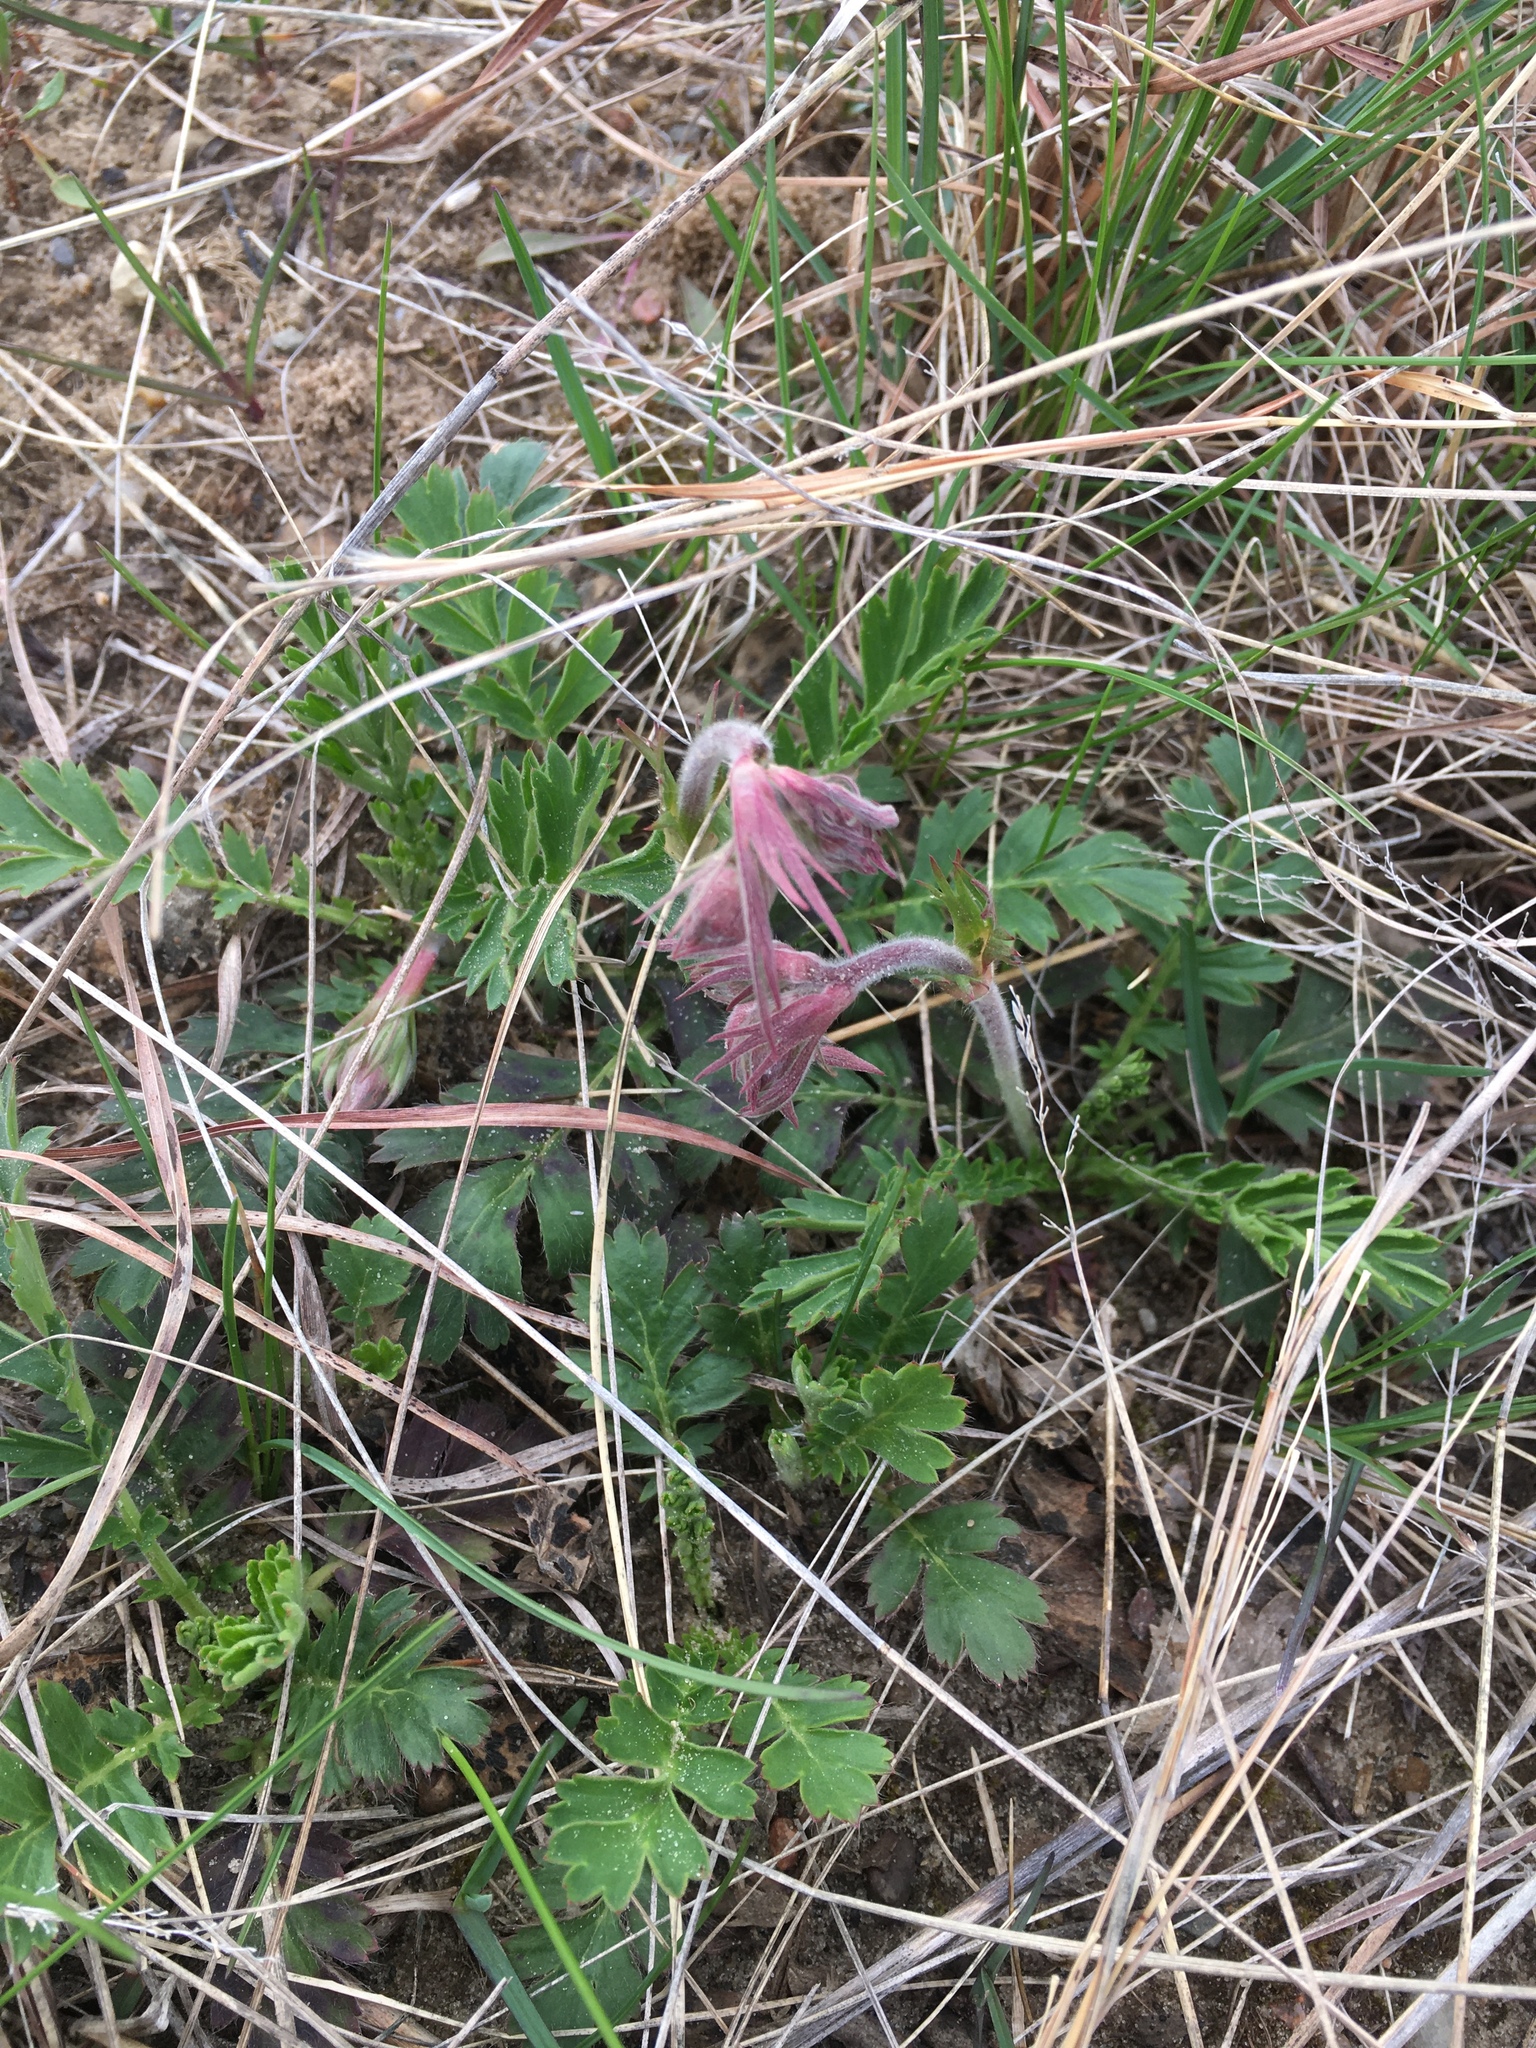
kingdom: Plantae
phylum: Tracheophyta
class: Magnoliopsida
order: Rosales
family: Rosaceae
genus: Geum
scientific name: Geum triflorum
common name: Old man's whiskers
